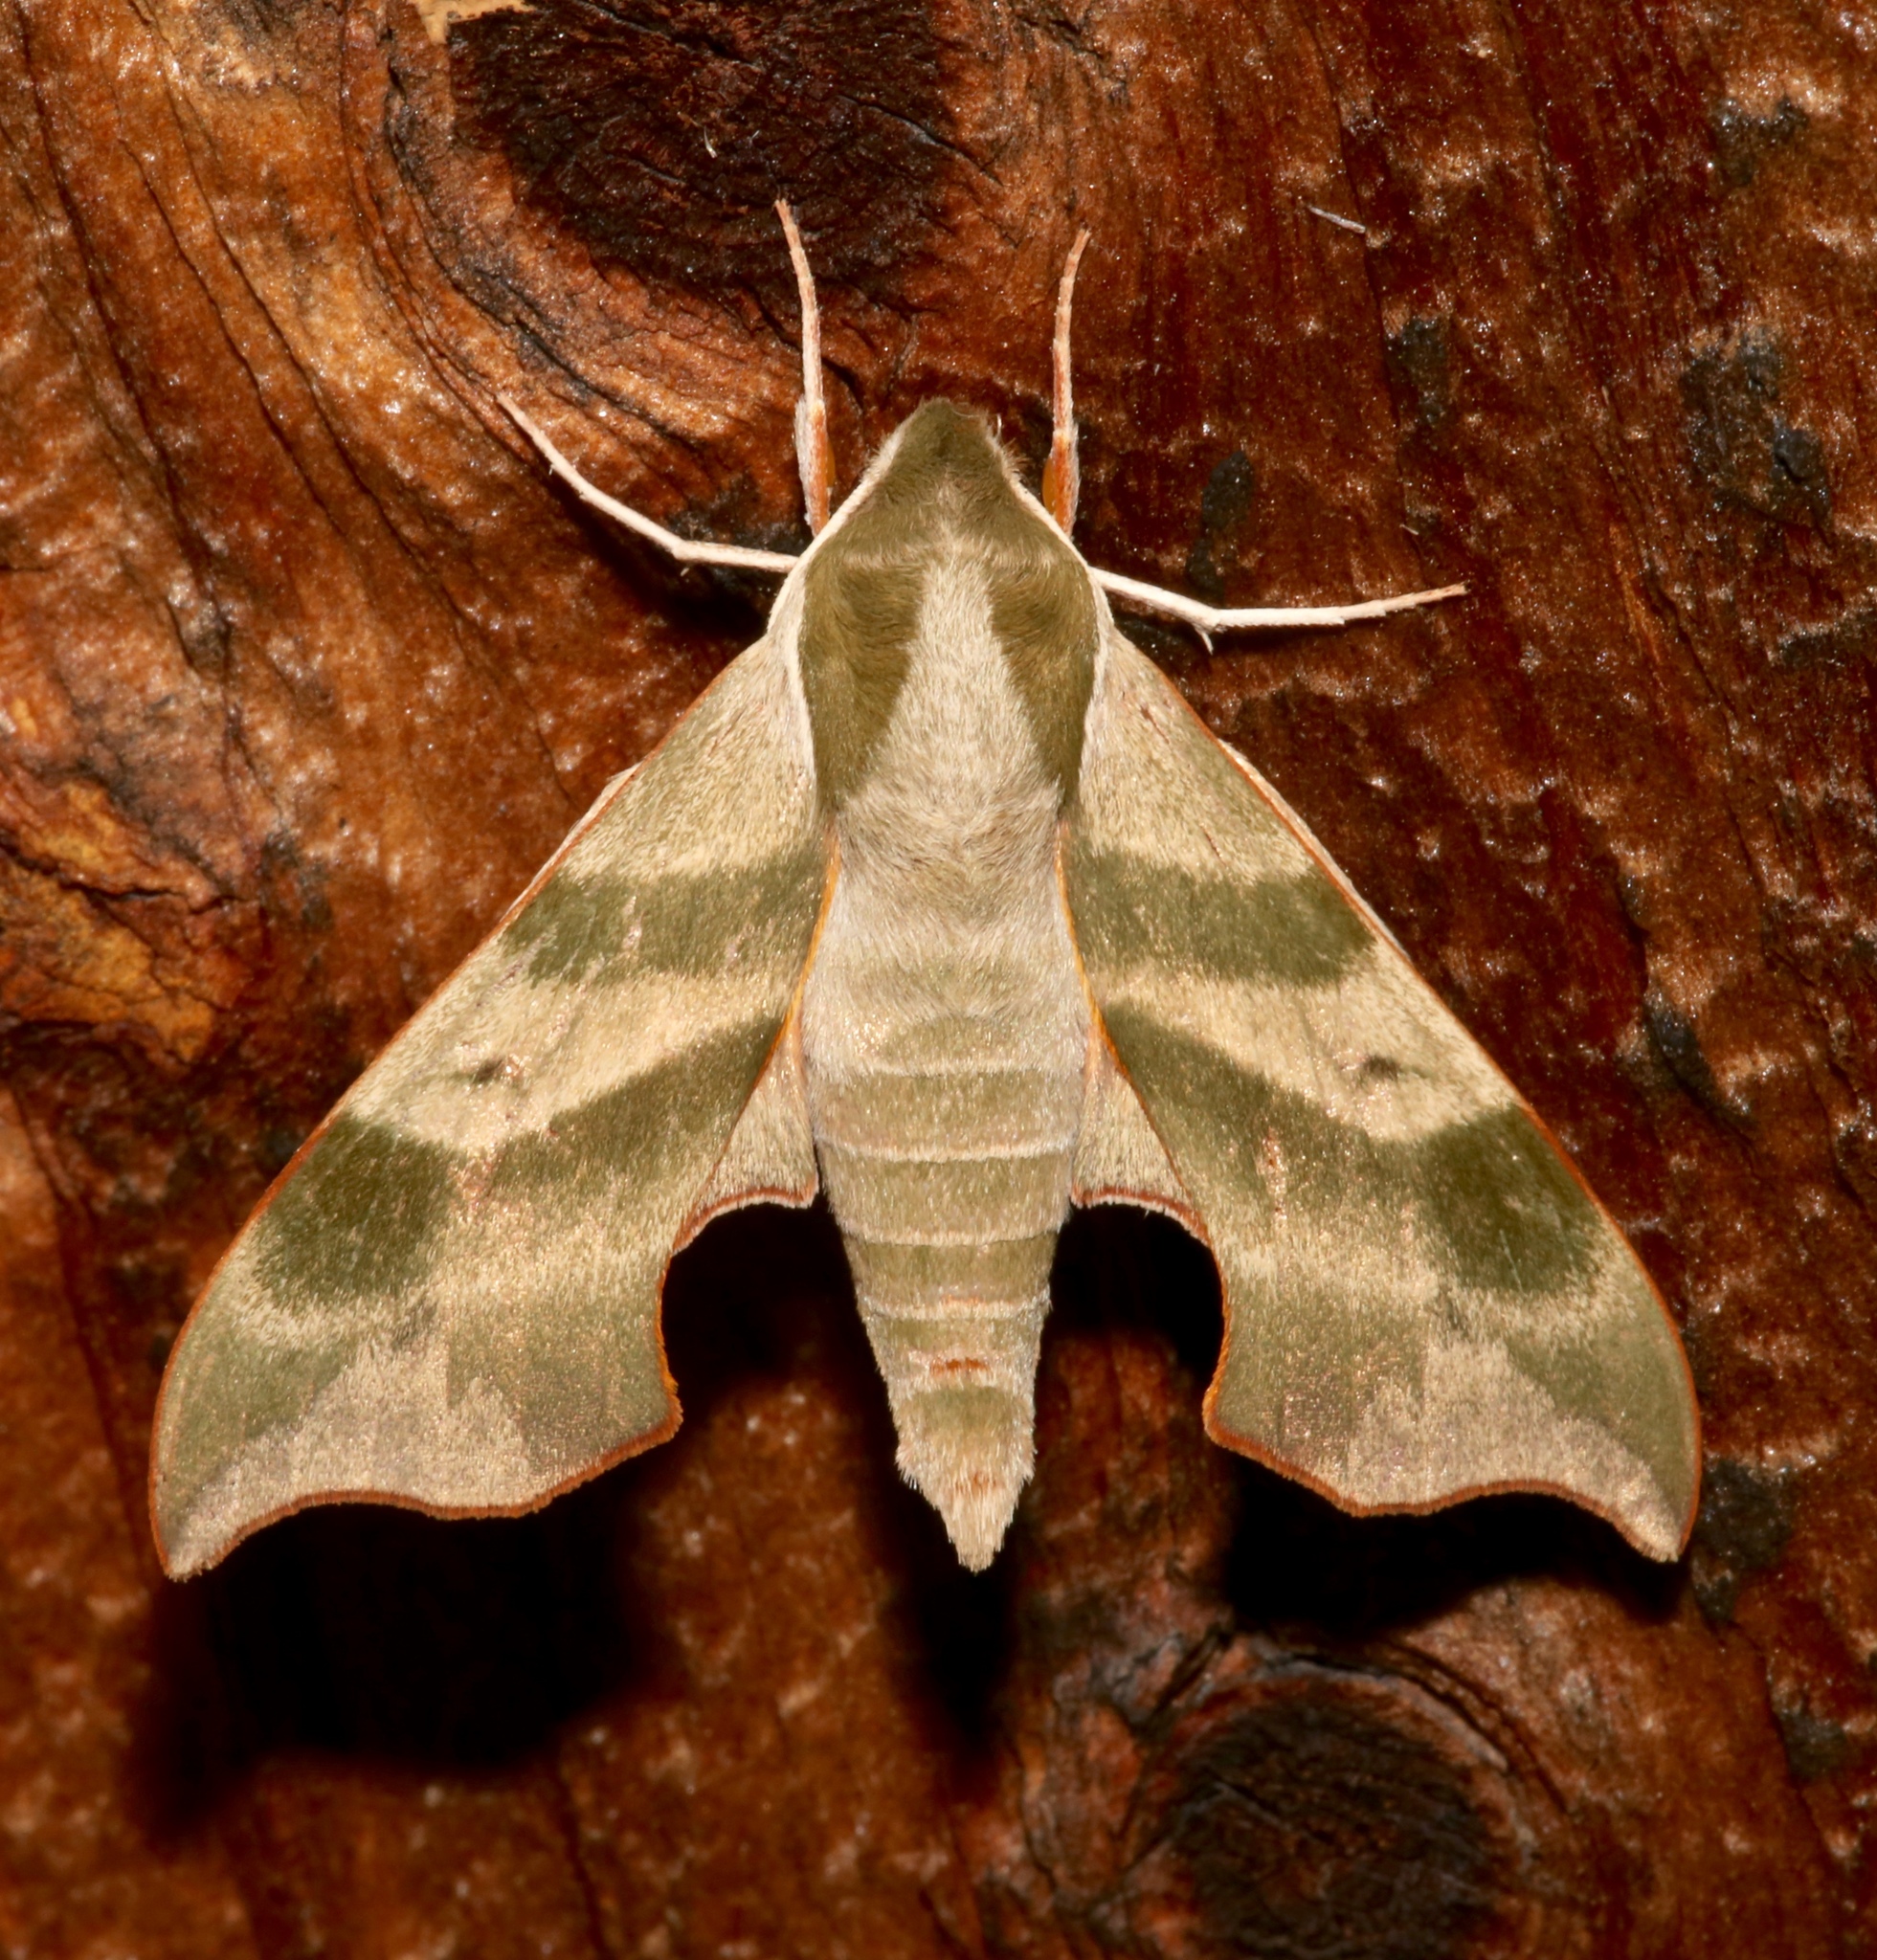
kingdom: Animalia
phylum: Arthropoda
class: Insecta
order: Lepidoptera
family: Sphingidae
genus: Darapsa
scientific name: Darapsa myron
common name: Hog sphinx
